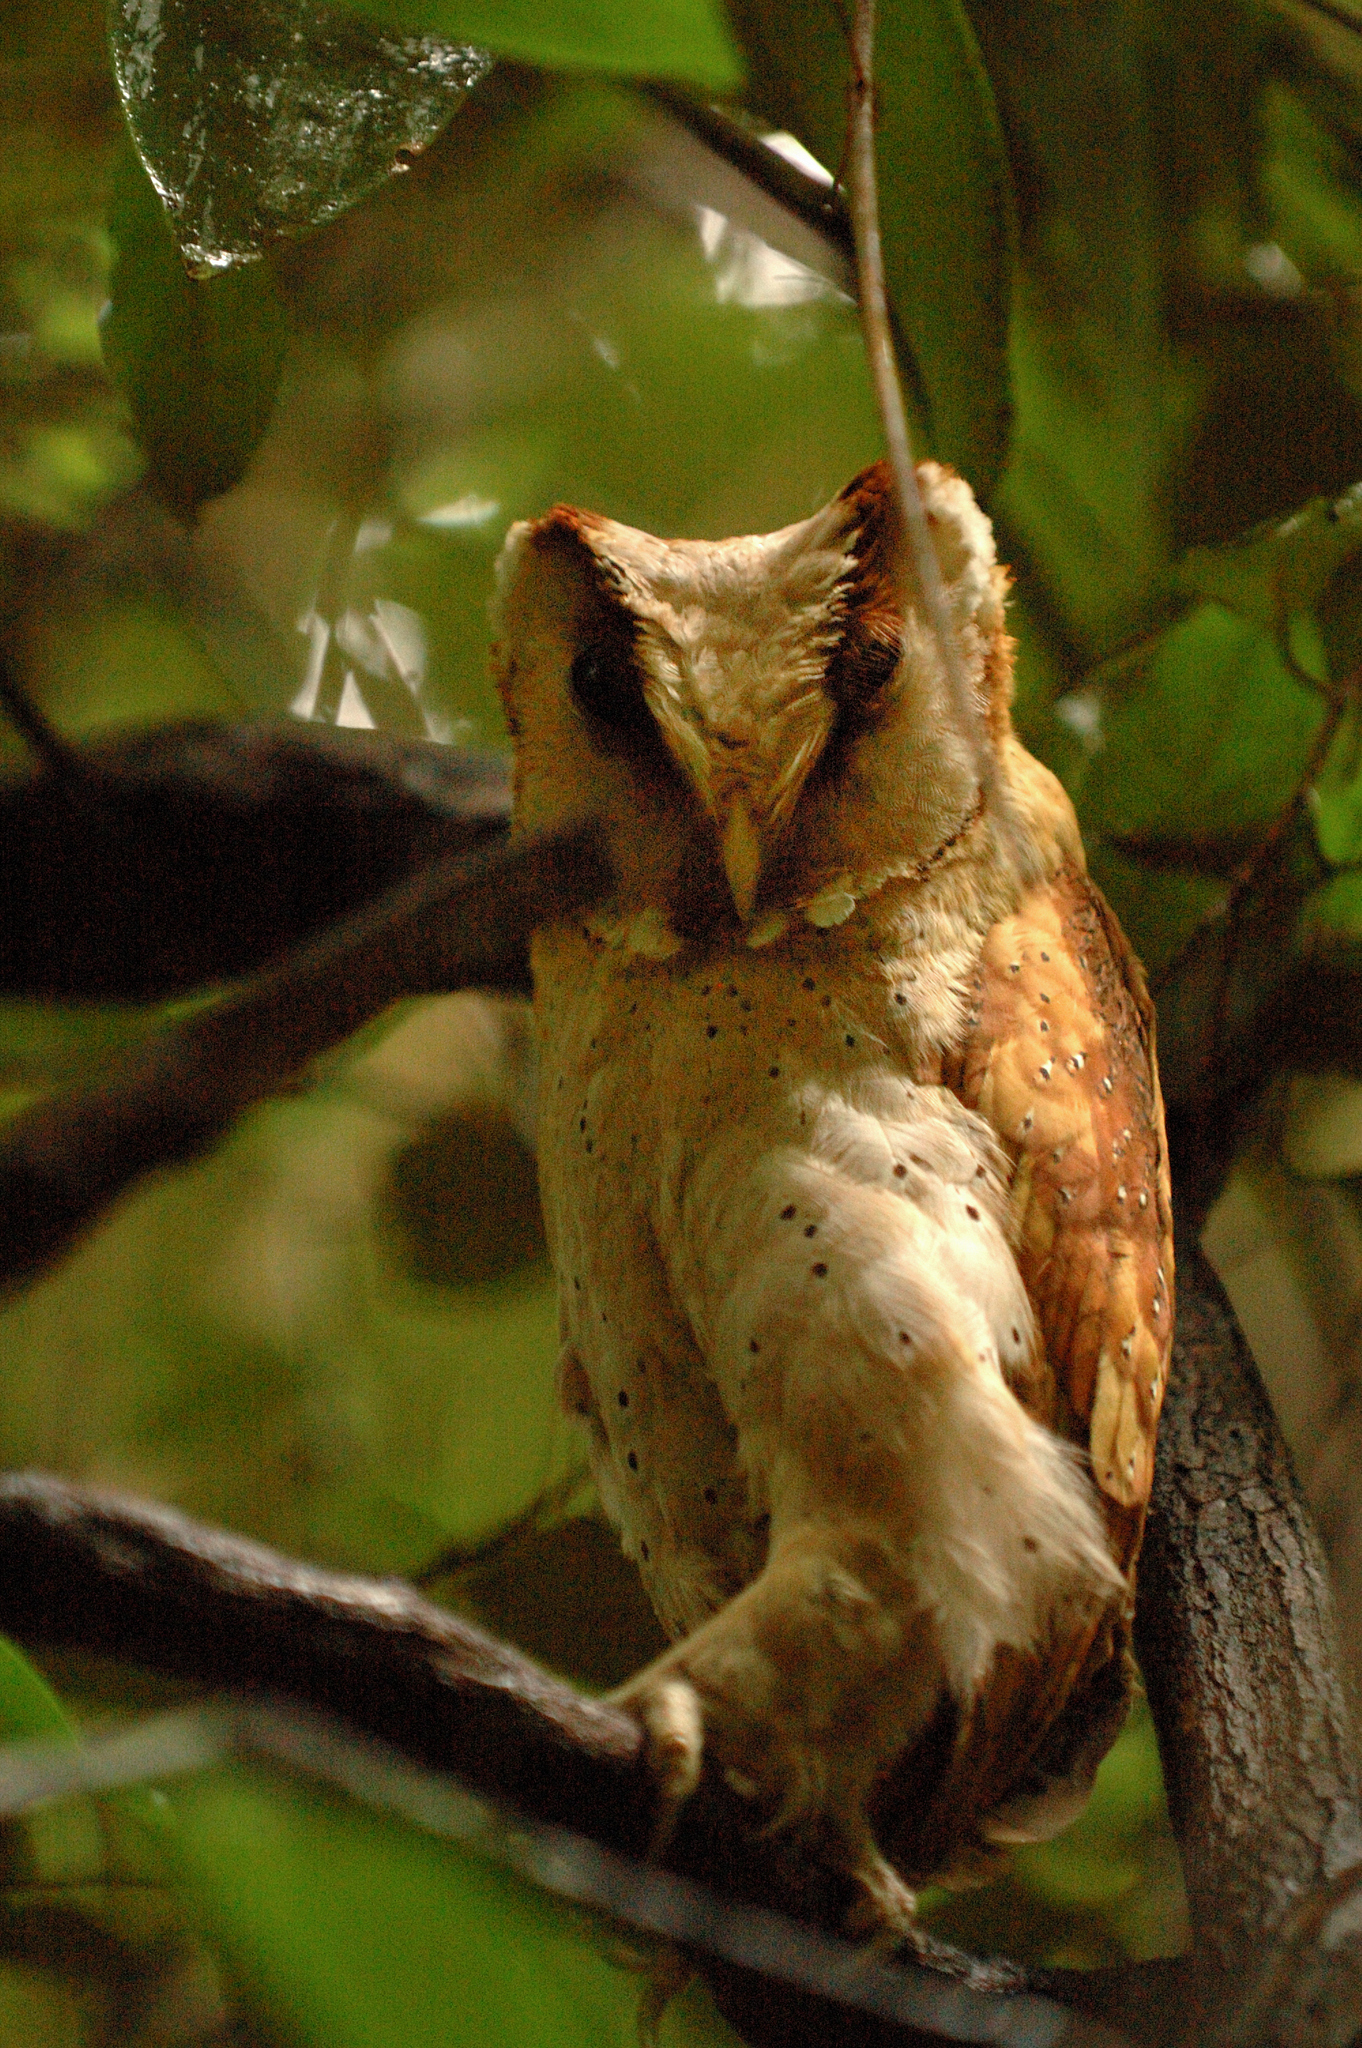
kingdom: Animalia
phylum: Chordata
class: Aves
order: Strigiformes
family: Tytonidae
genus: Phodilus
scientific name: Phodilus assimilis
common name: Sri lanka bay-owl
